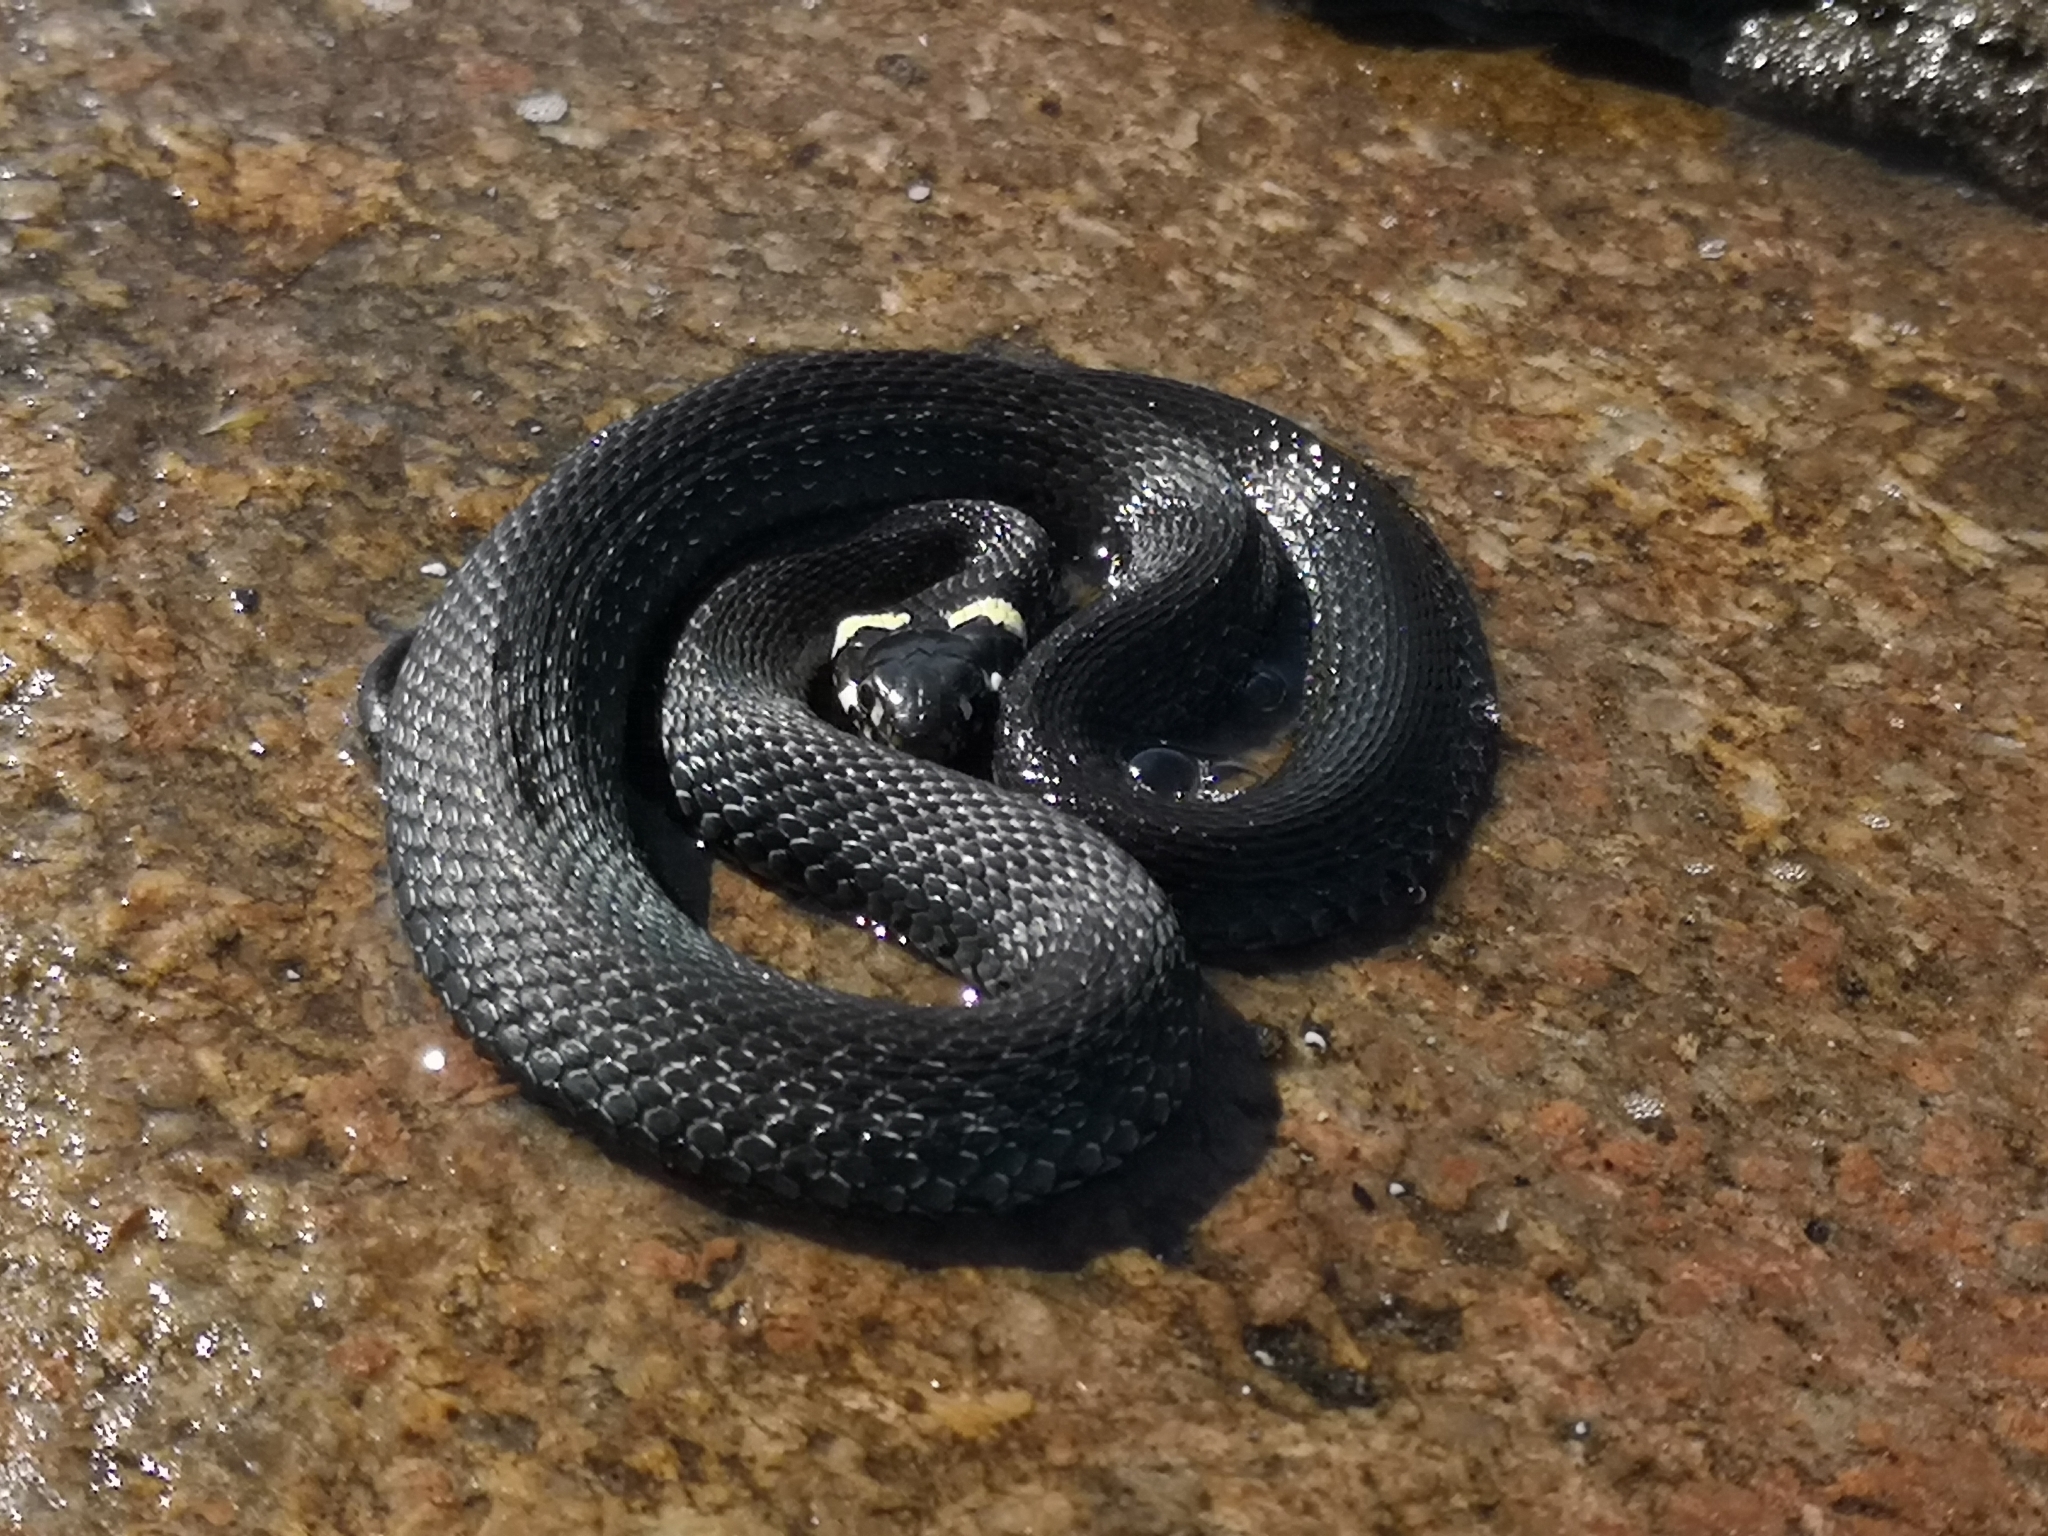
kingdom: Animalia
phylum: Chordata
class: Squamata
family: Colubridae
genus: Natrix
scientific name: Natrix natrix
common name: Grass snake
